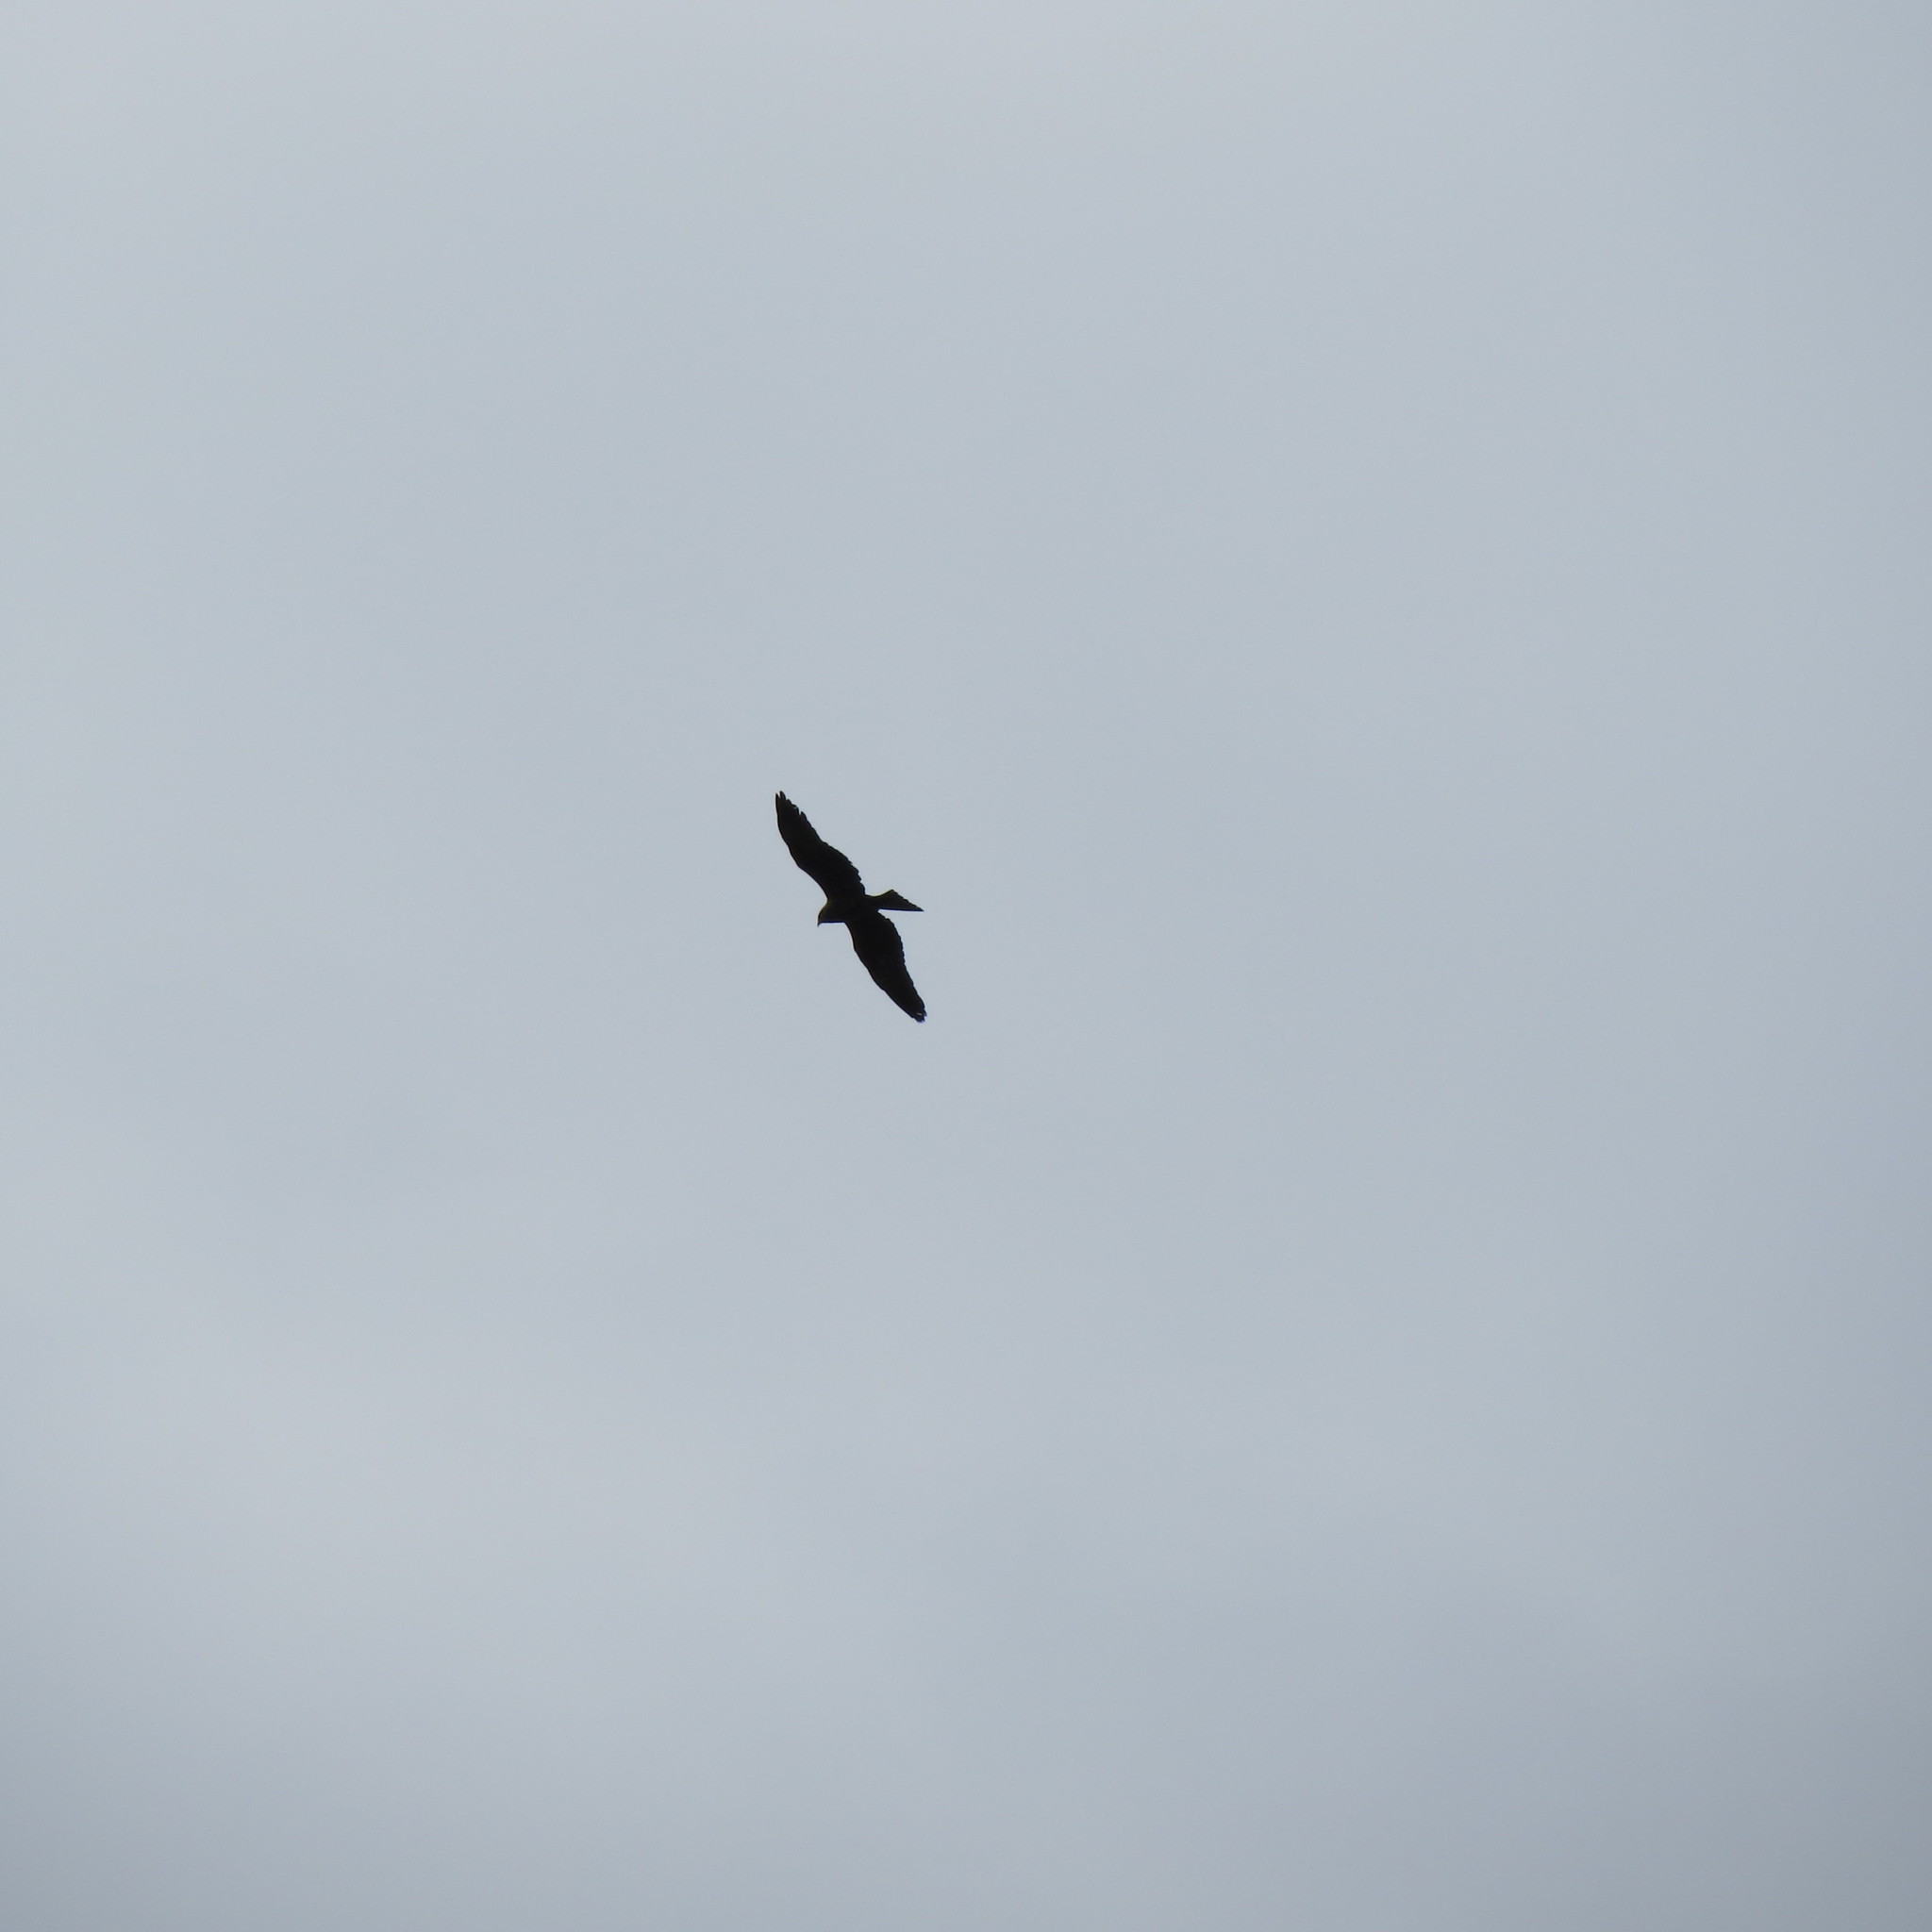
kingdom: Animalia
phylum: Chordata
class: Aves
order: Accipitriformes
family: Accipitridae
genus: Milvus
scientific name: Milvus migrans
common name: Black kite
